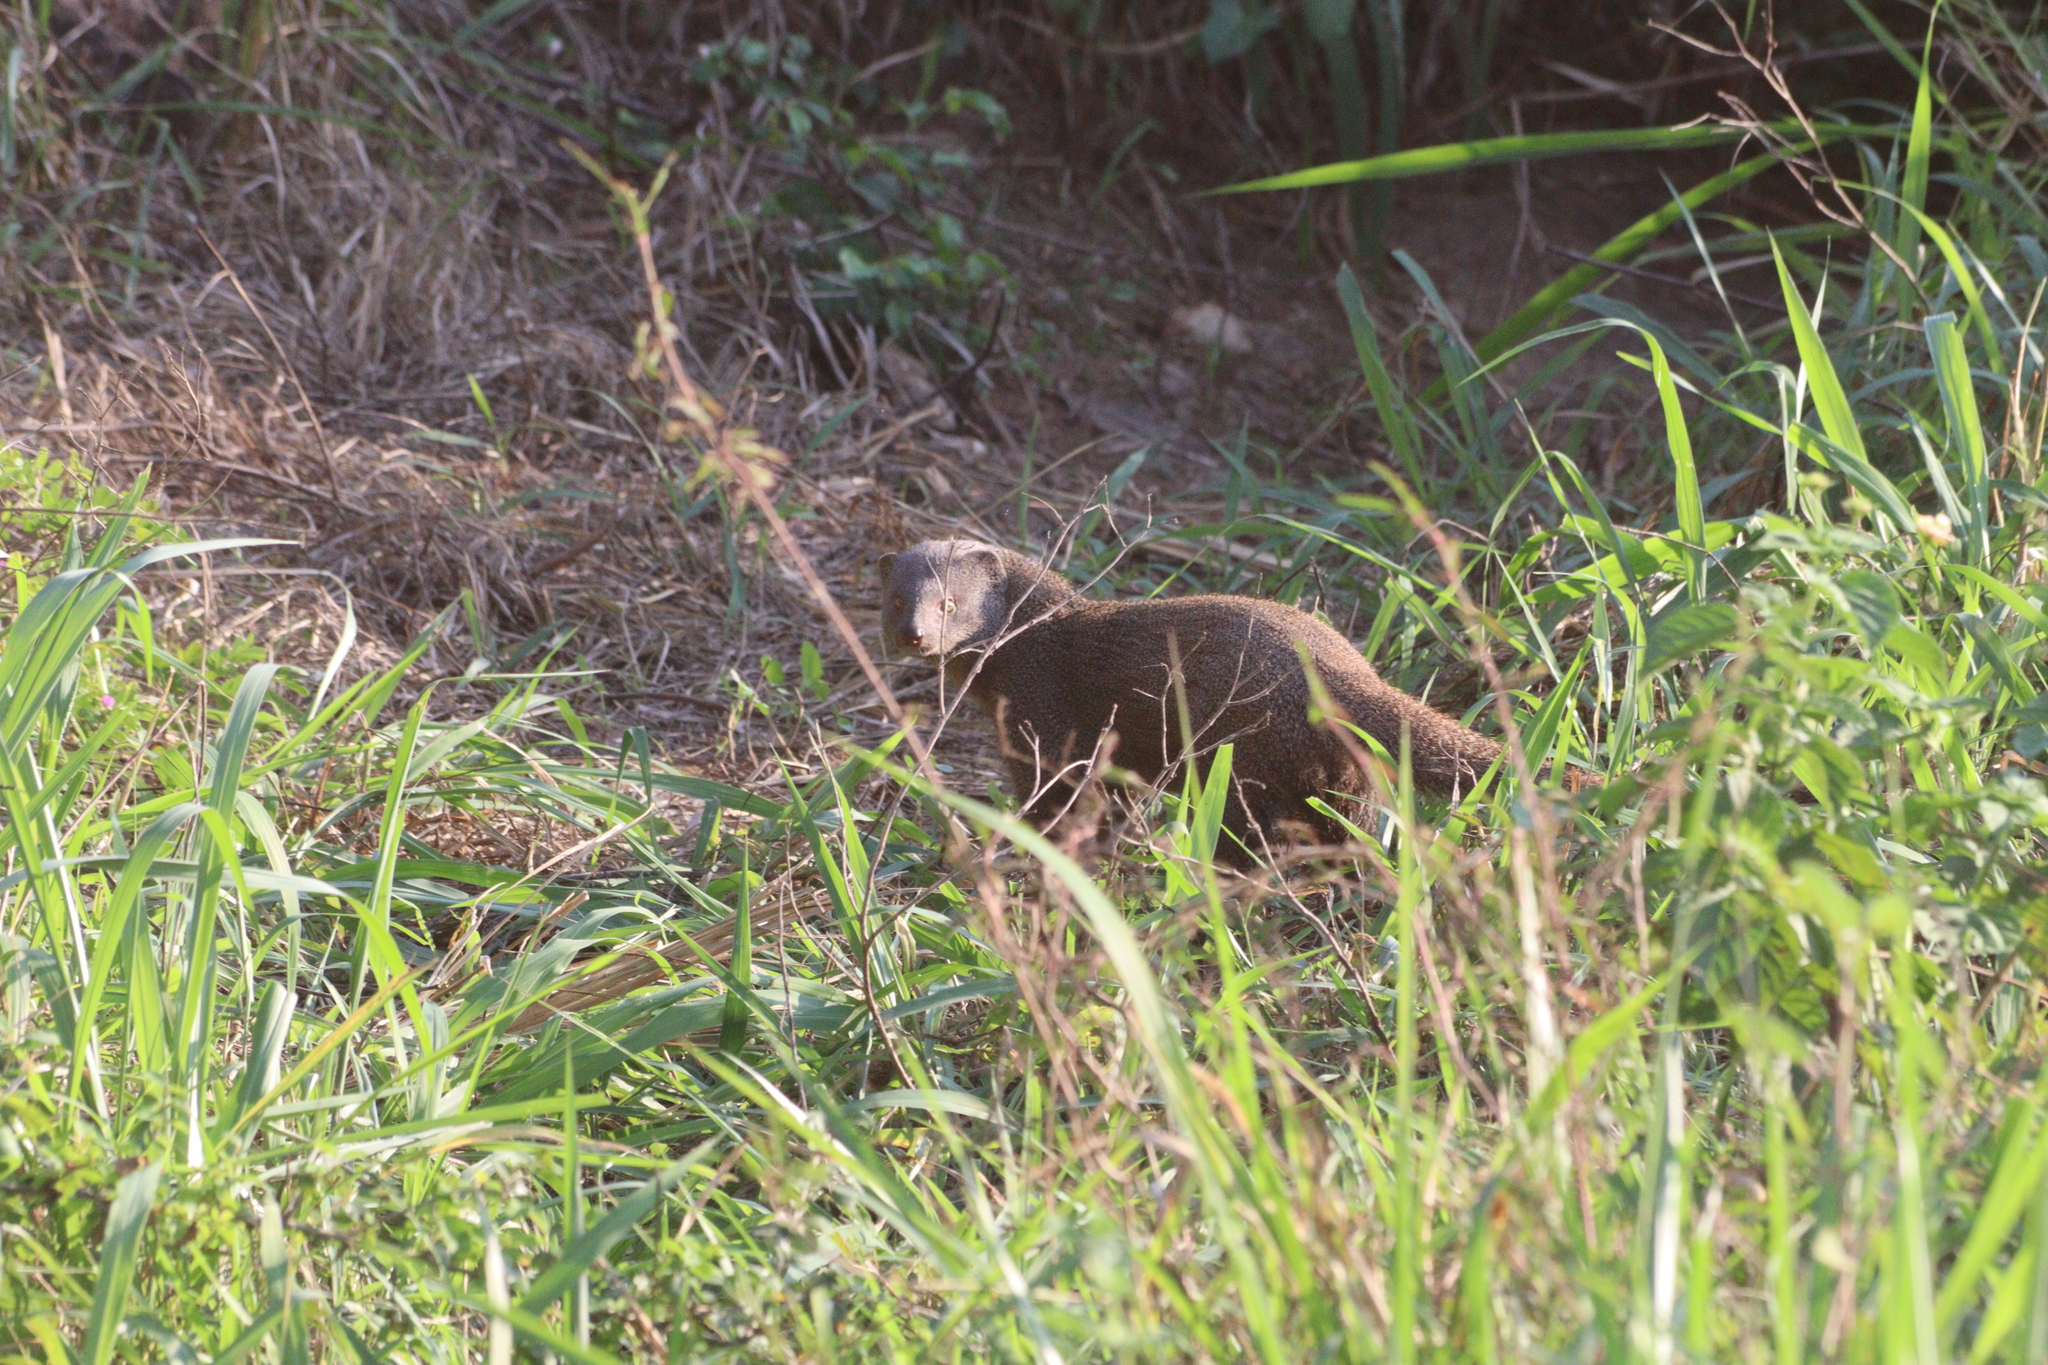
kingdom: Animalia
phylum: Chordata
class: Mammalia
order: Carnivora
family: Herpestidae
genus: Herpestes
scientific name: Herpestes edwardsi
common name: Indian gray mongoose
